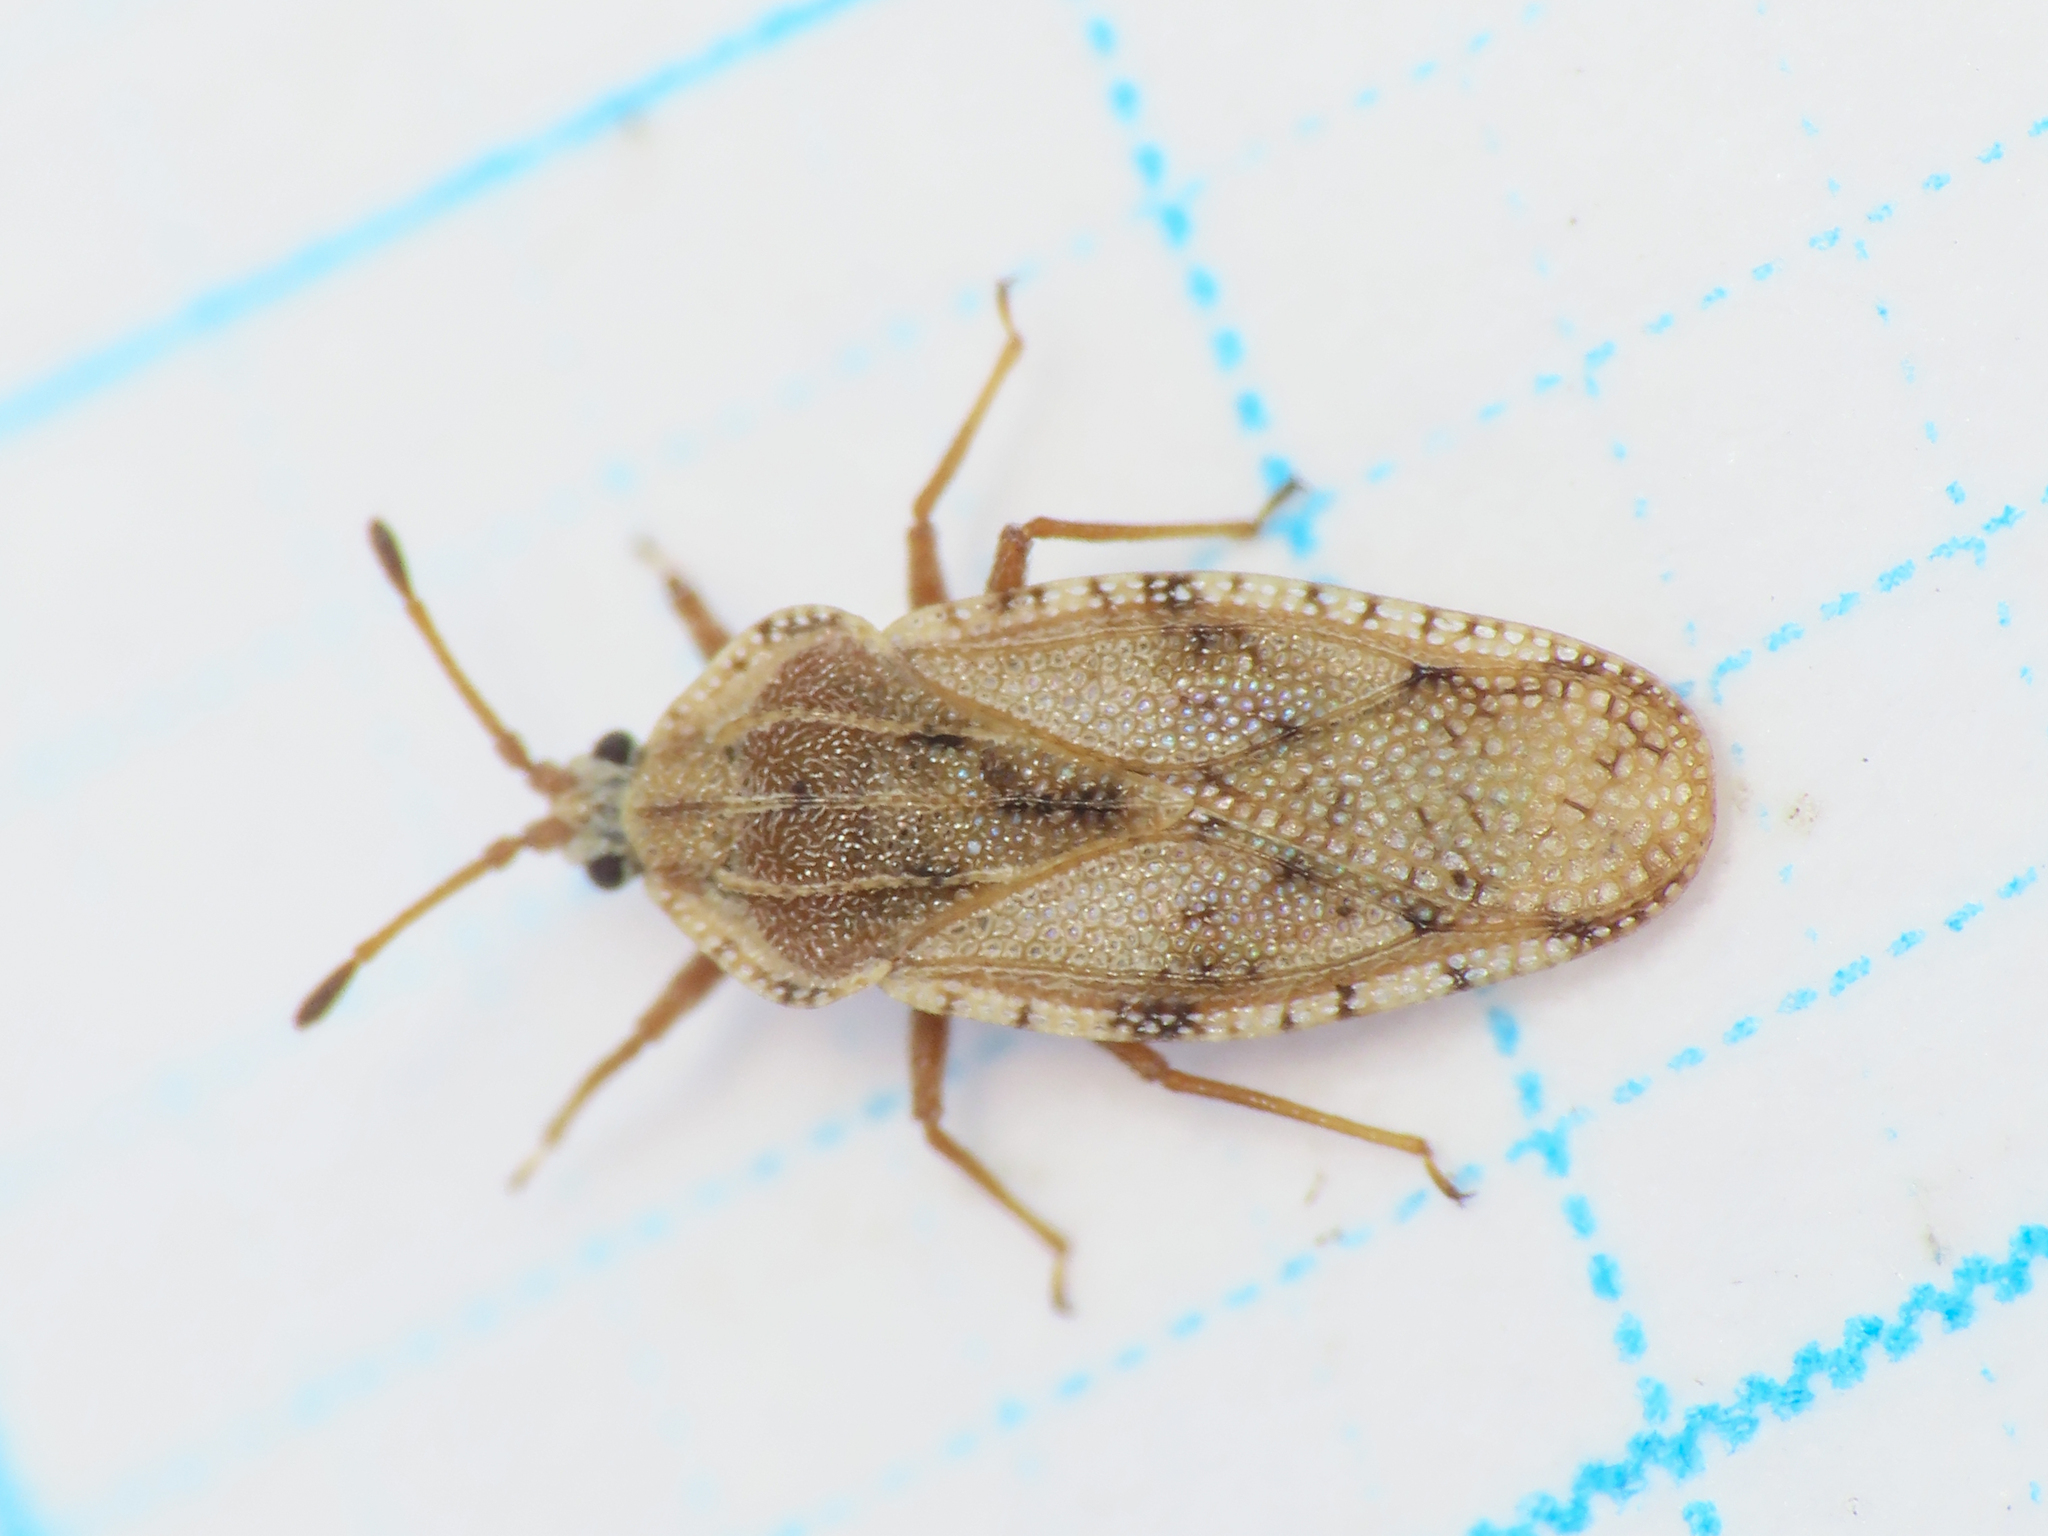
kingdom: Animalia
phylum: Arthropoda
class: Insecta
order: Hemiptera
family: Tingidae
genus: Tingis
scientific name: Tingis angustata
